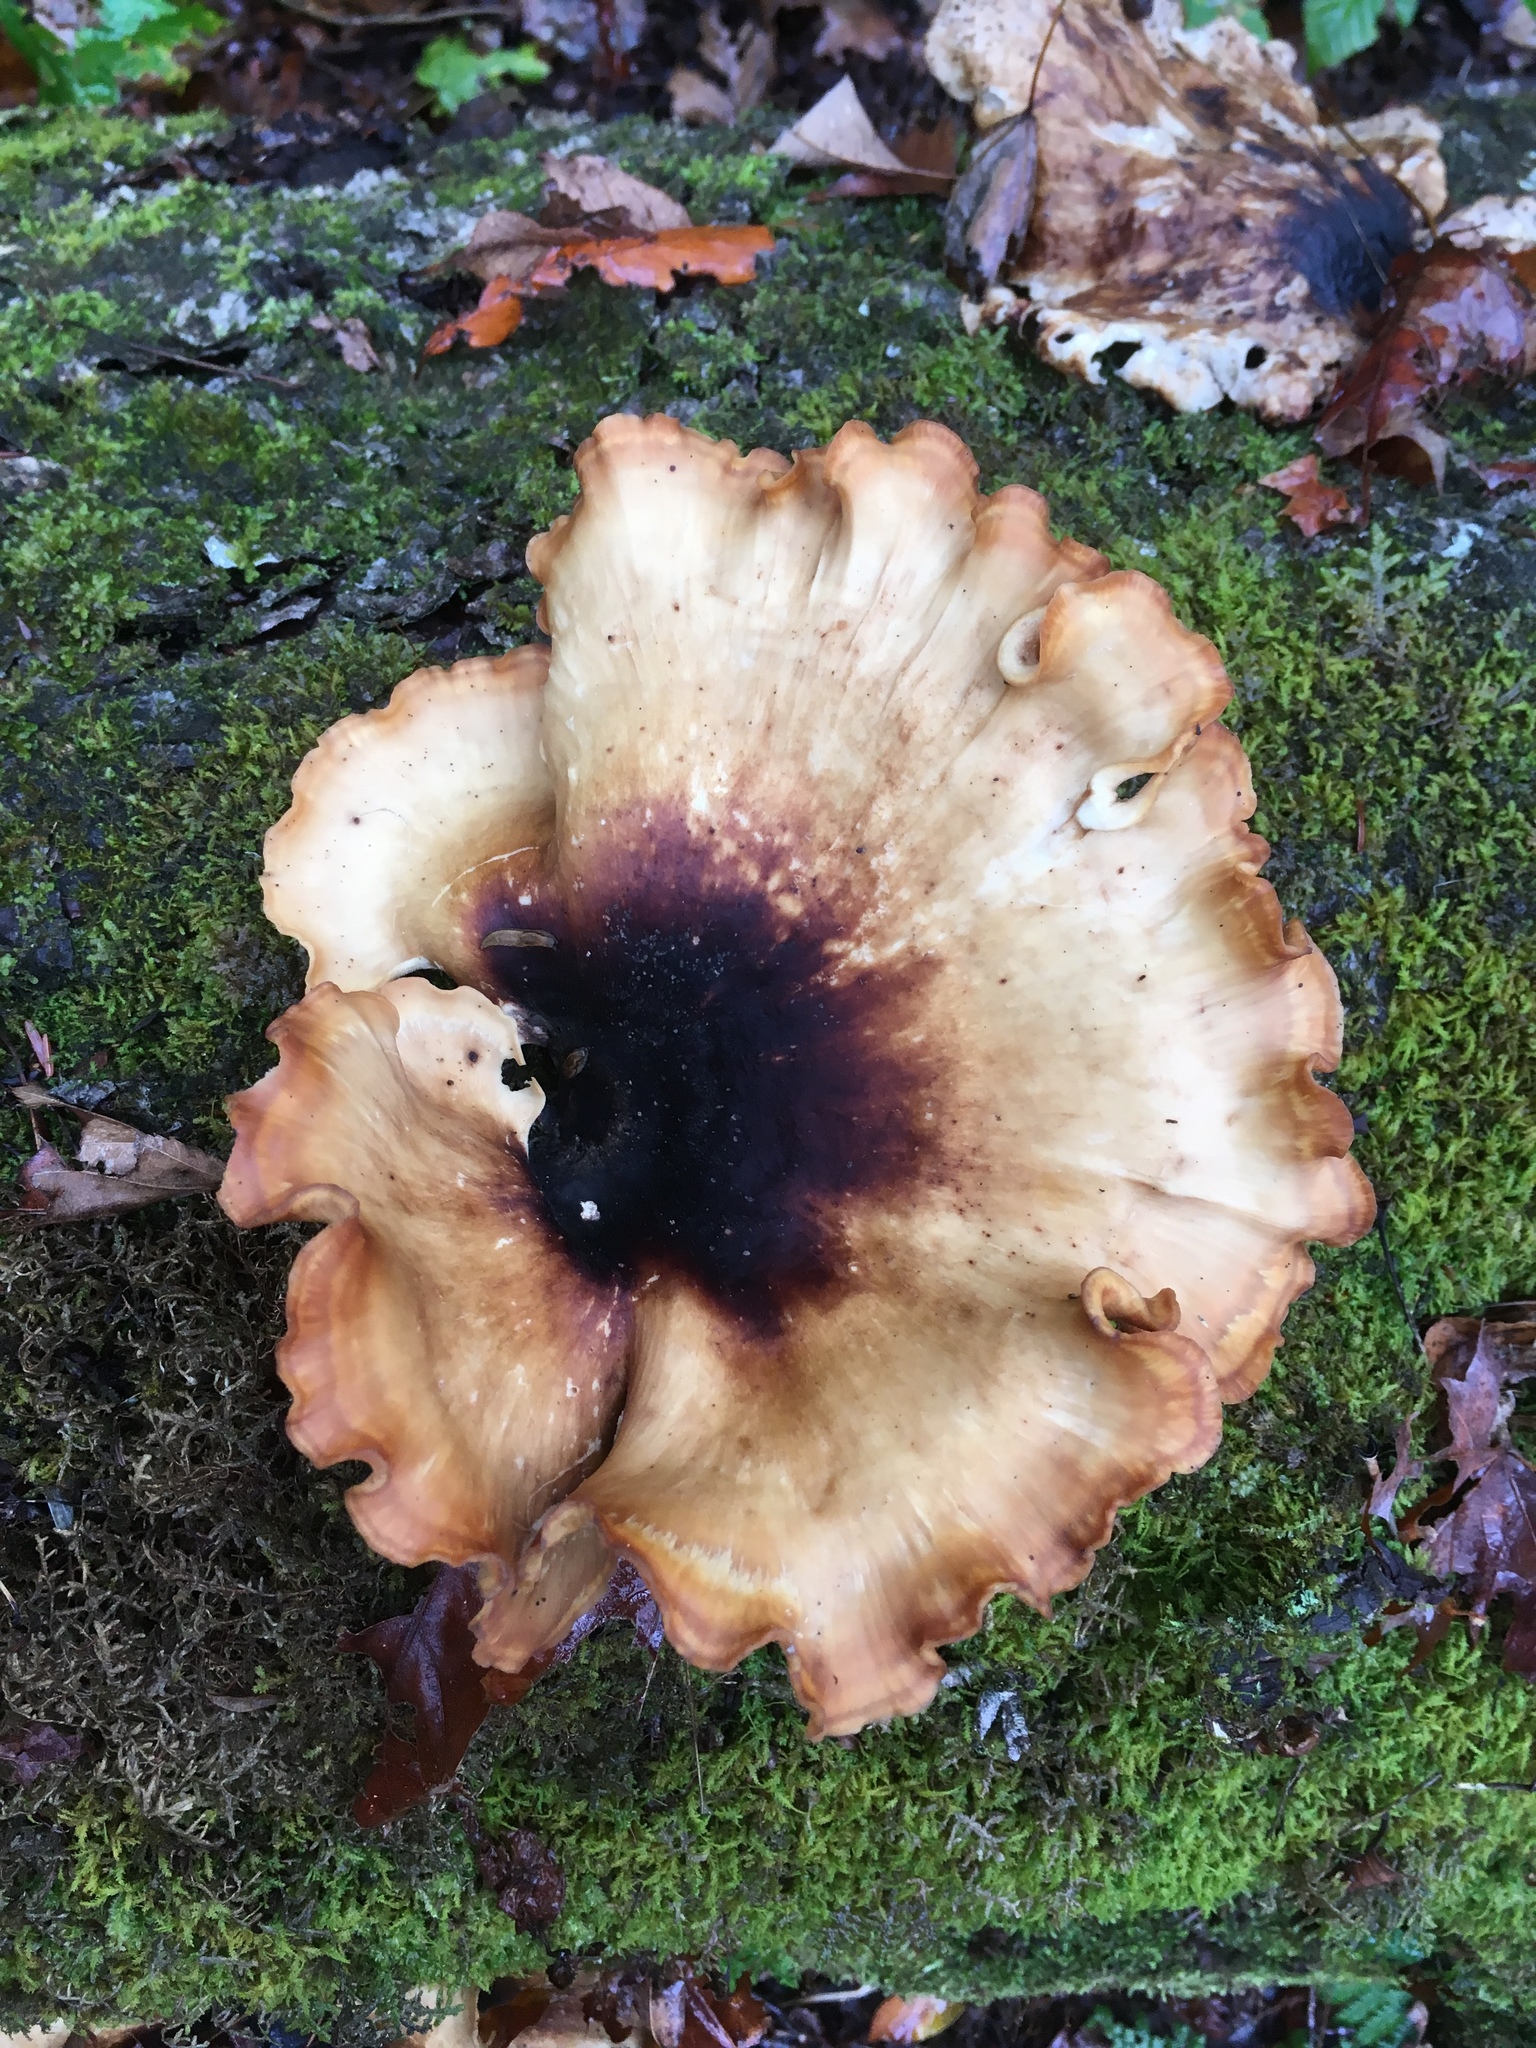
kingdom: Fungi
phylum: Basidiomycota
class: Agaricomycetes
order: Polyporales
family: Polyporaceae
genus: Picipes
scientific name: Picipes badius
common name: Bay polypore
